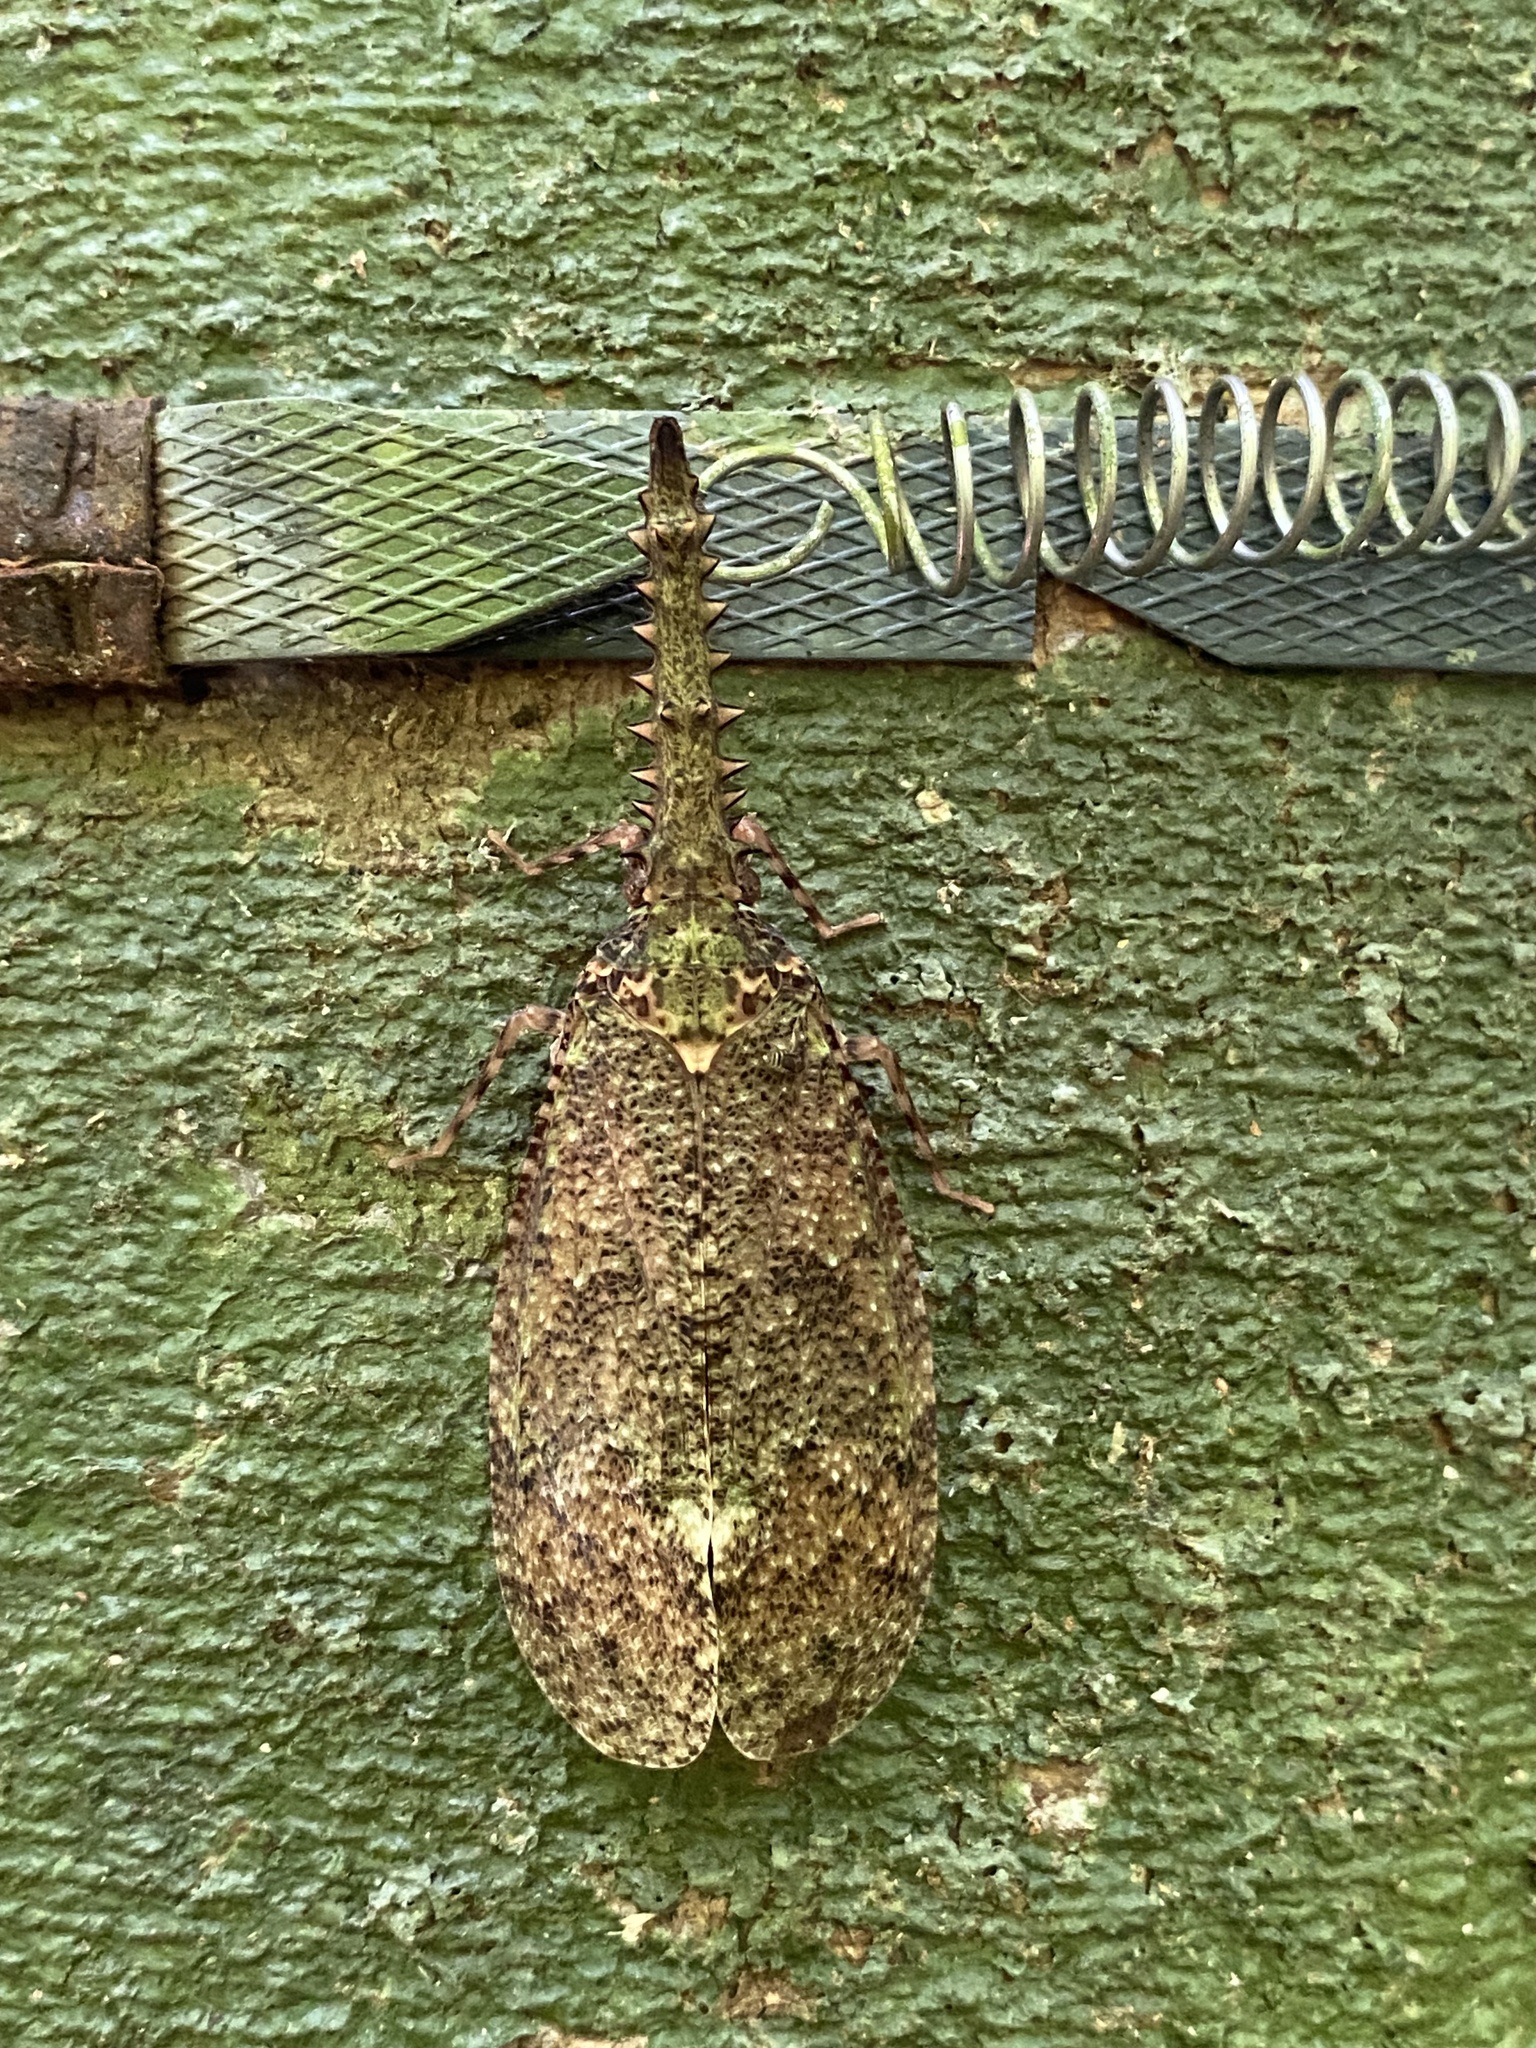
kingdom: Animalia
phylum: Arthropoda
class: Insecta
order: Hemiptera
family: Fulgoridae
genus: Cathedra
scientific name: Cathedra serrata
